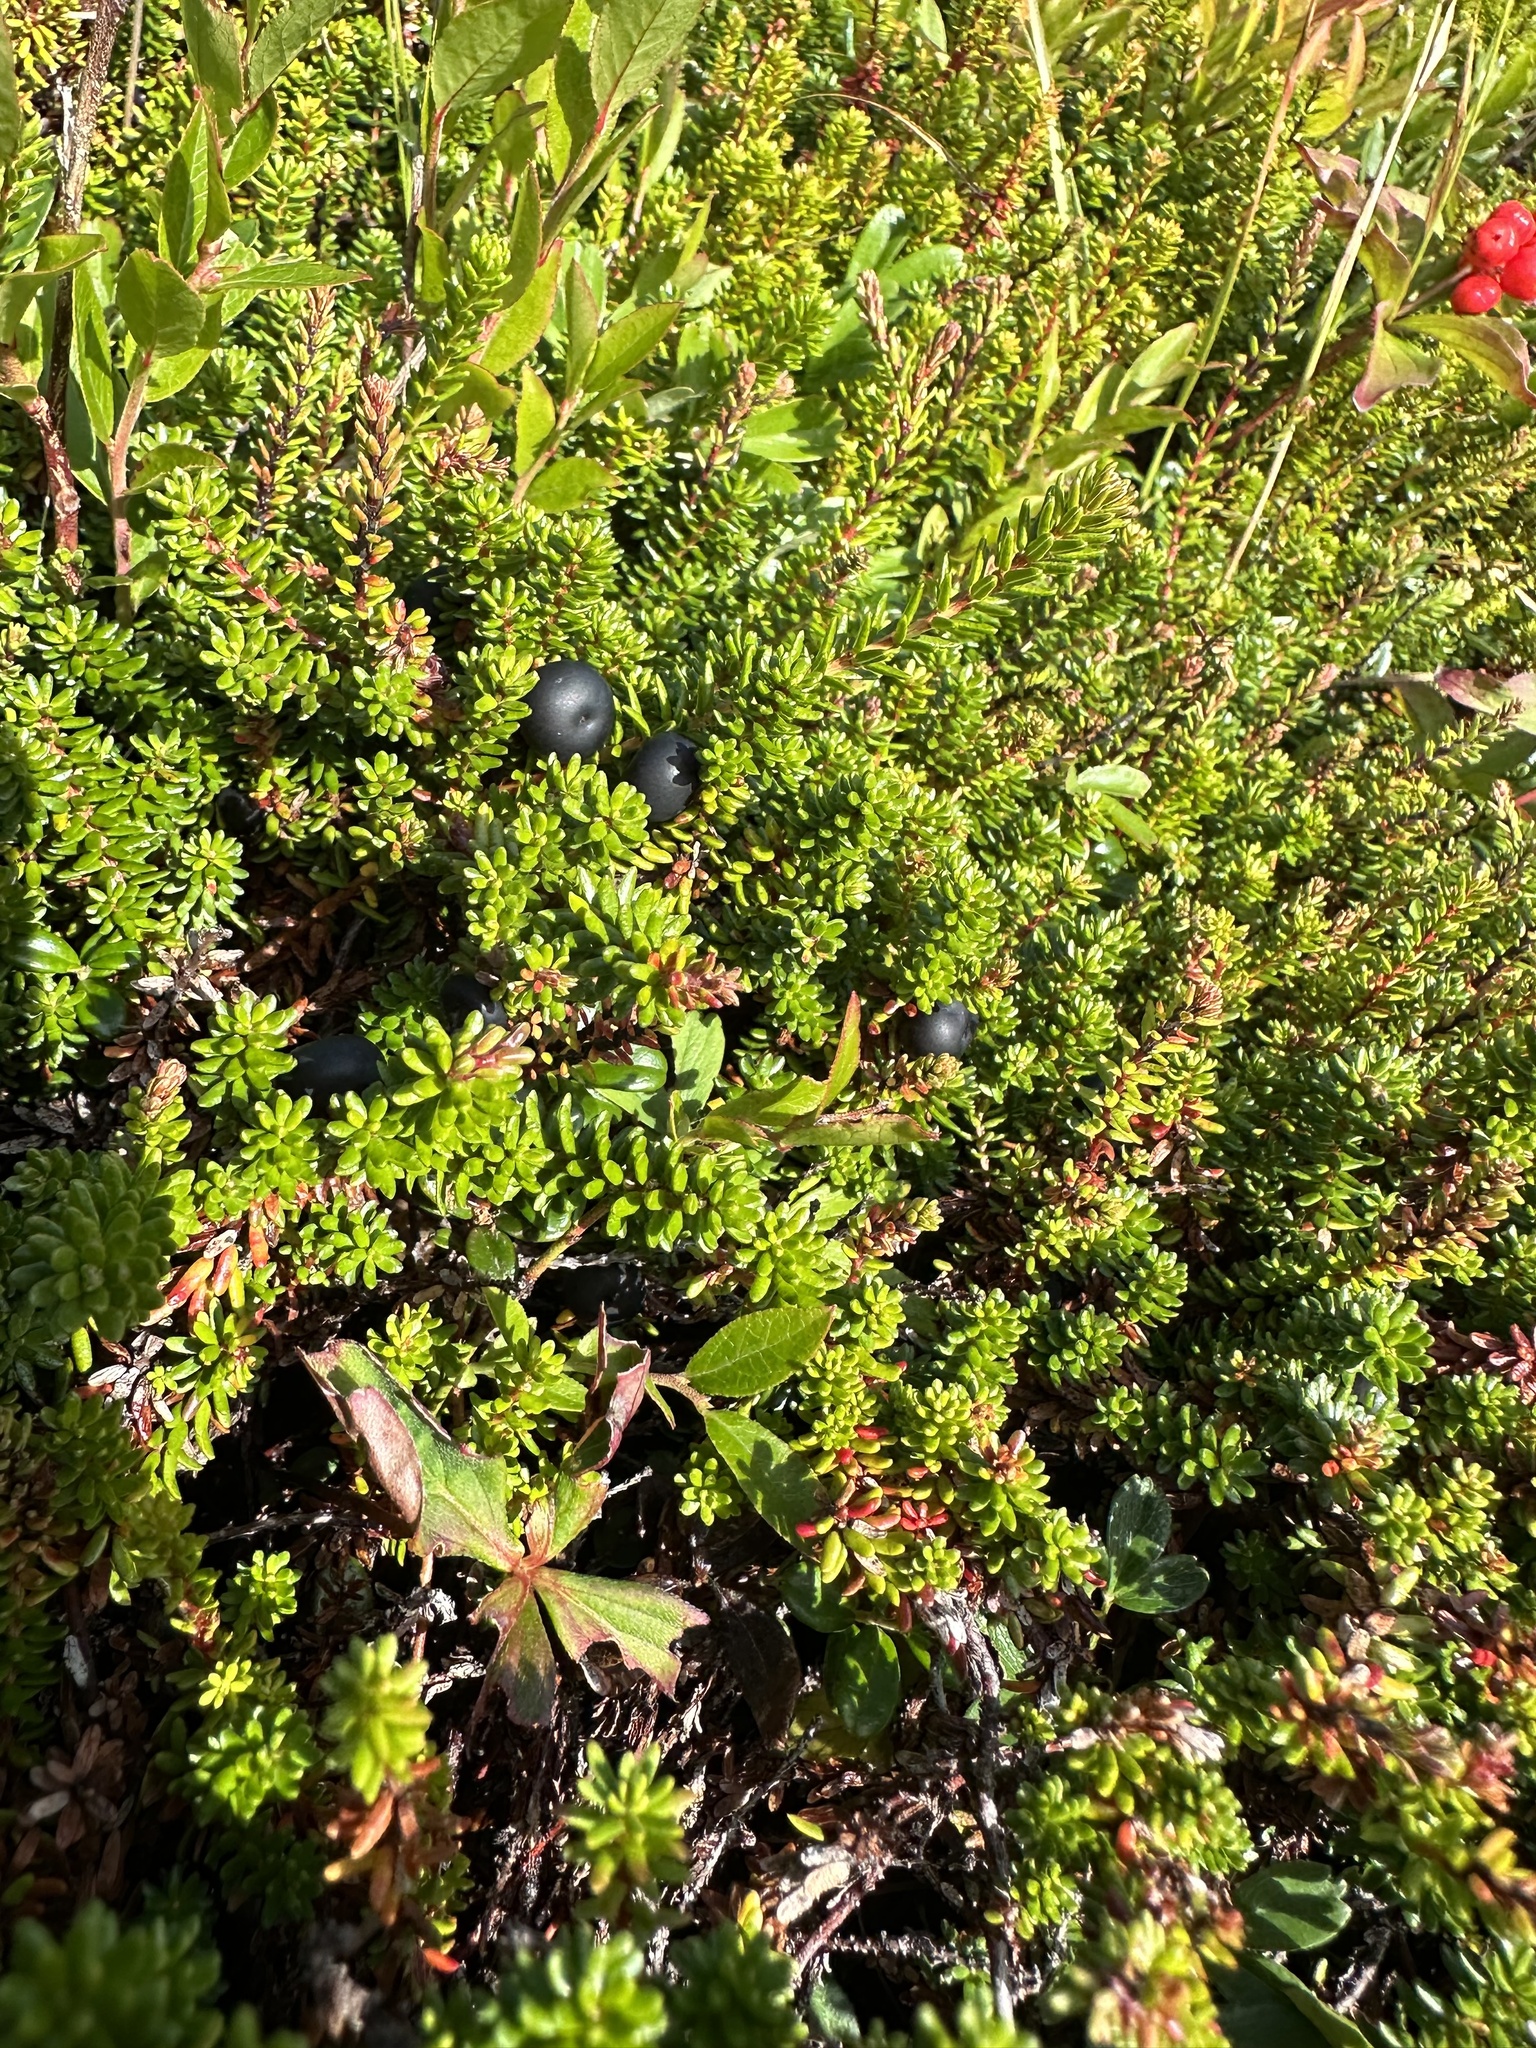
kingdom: Plantae
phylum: Tracheophyta
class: Magnoliopsida
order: Ericales
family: Ericaceae
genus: Empetrum
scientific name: Empetrum nigrum
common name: Black crowberry
